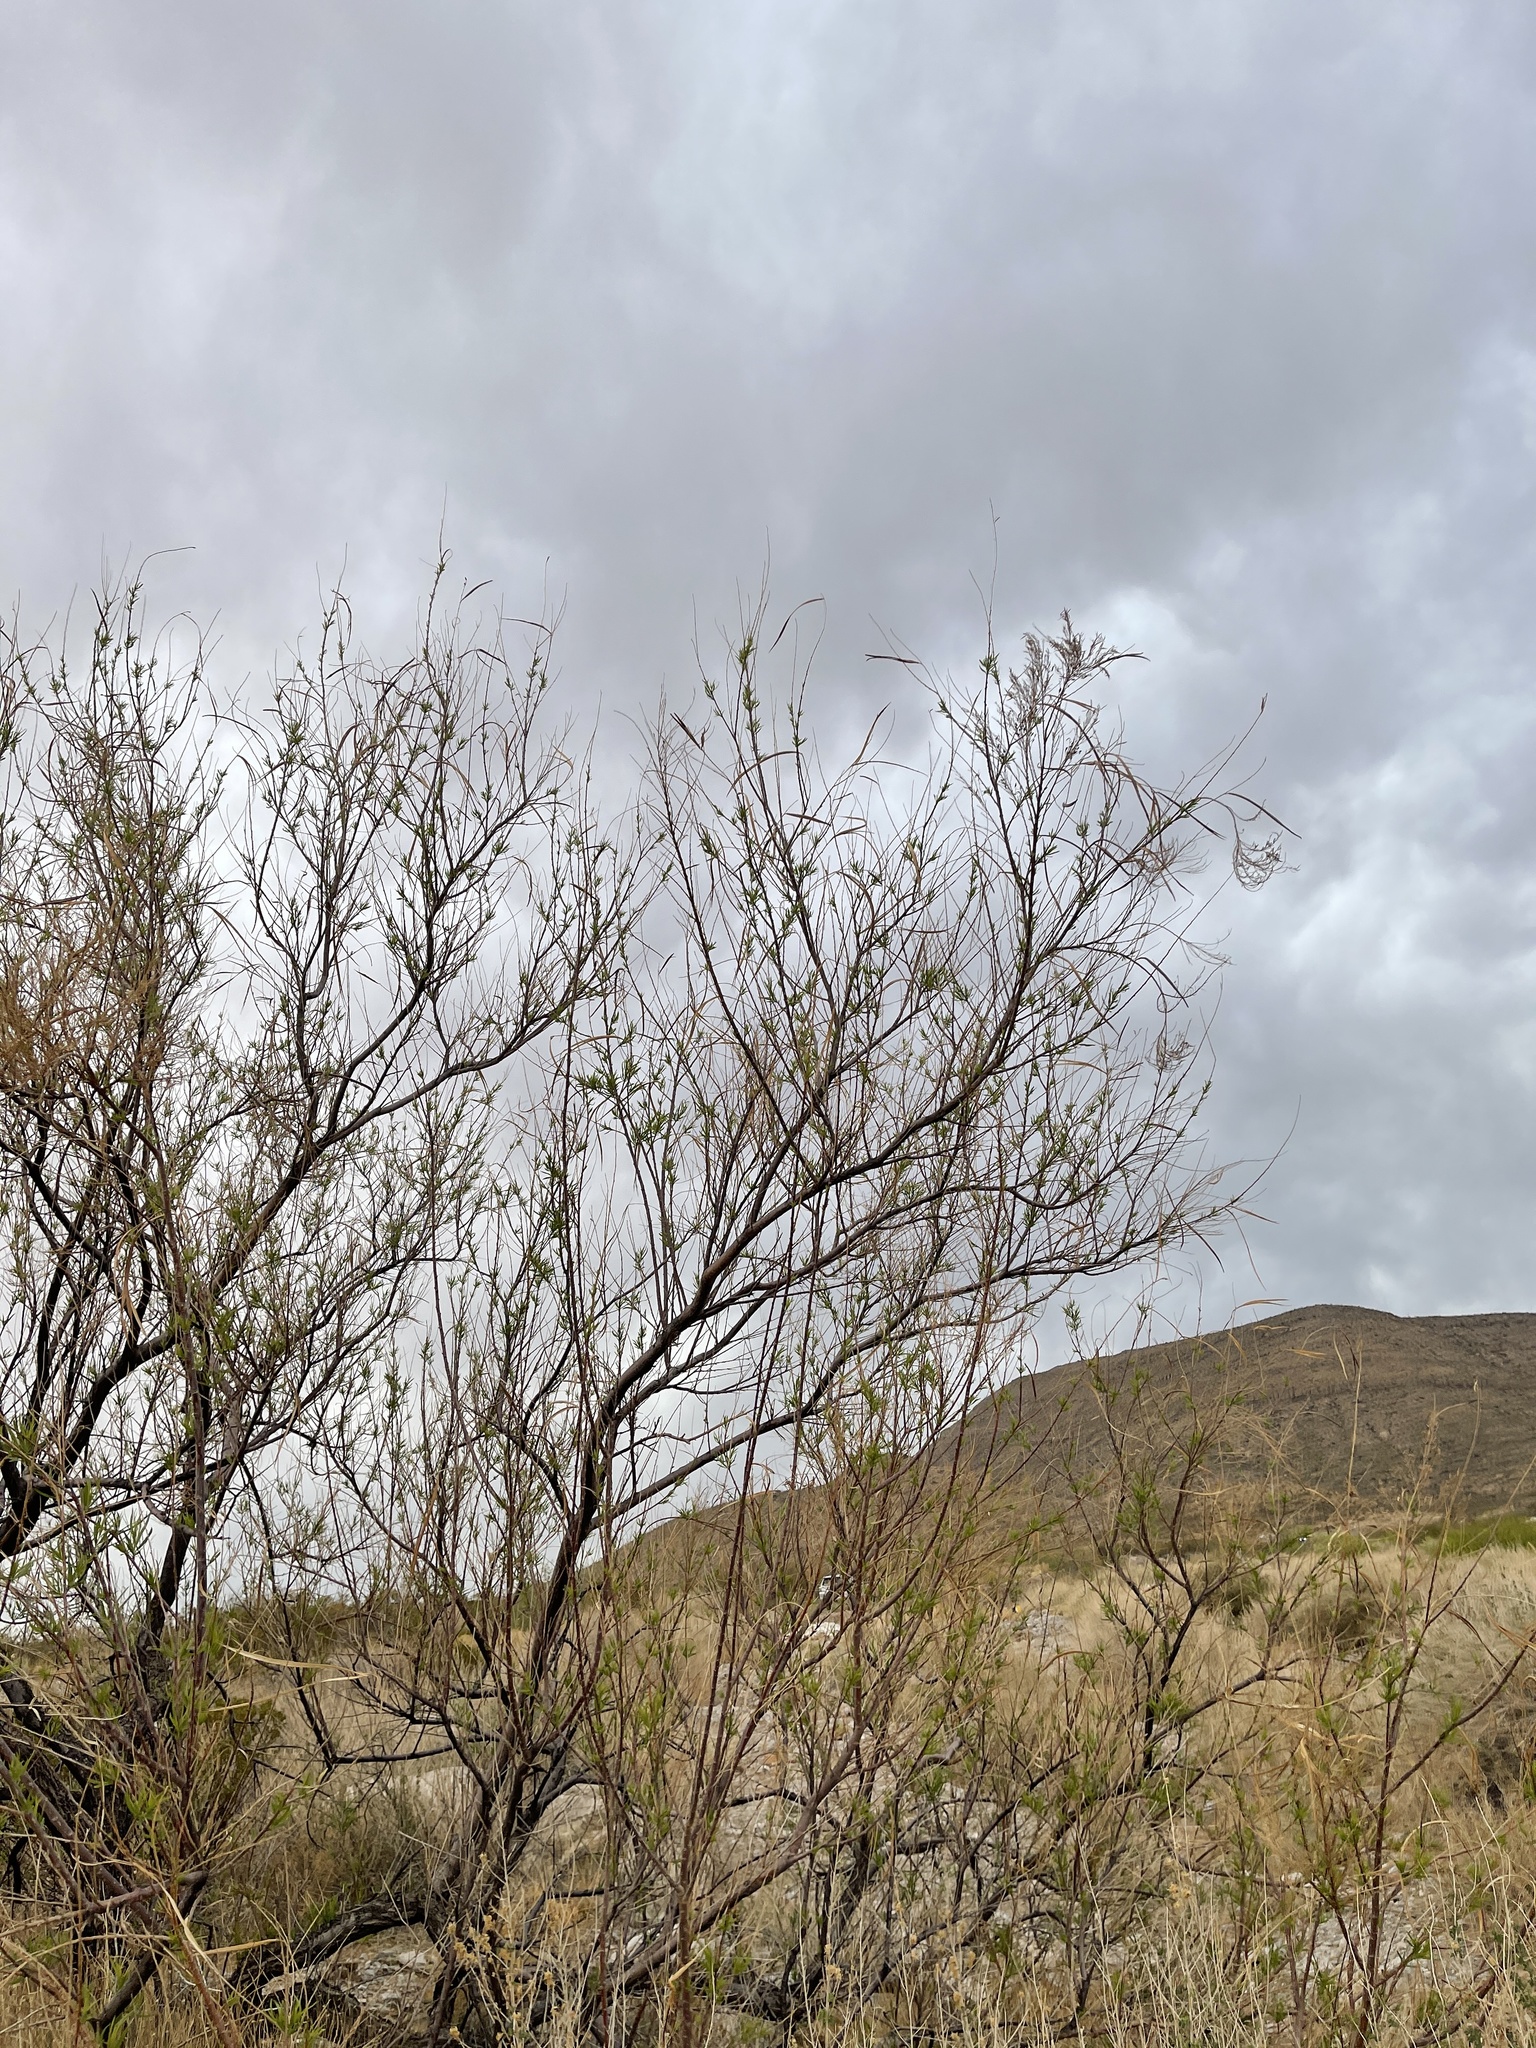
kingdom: Plantae
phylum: Tracheophyta
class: Magnoliopsida
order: Lamiales
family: Bignoniaceae
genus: Chilopsis
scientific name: Chilopsis linearis
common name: Desert-willow
